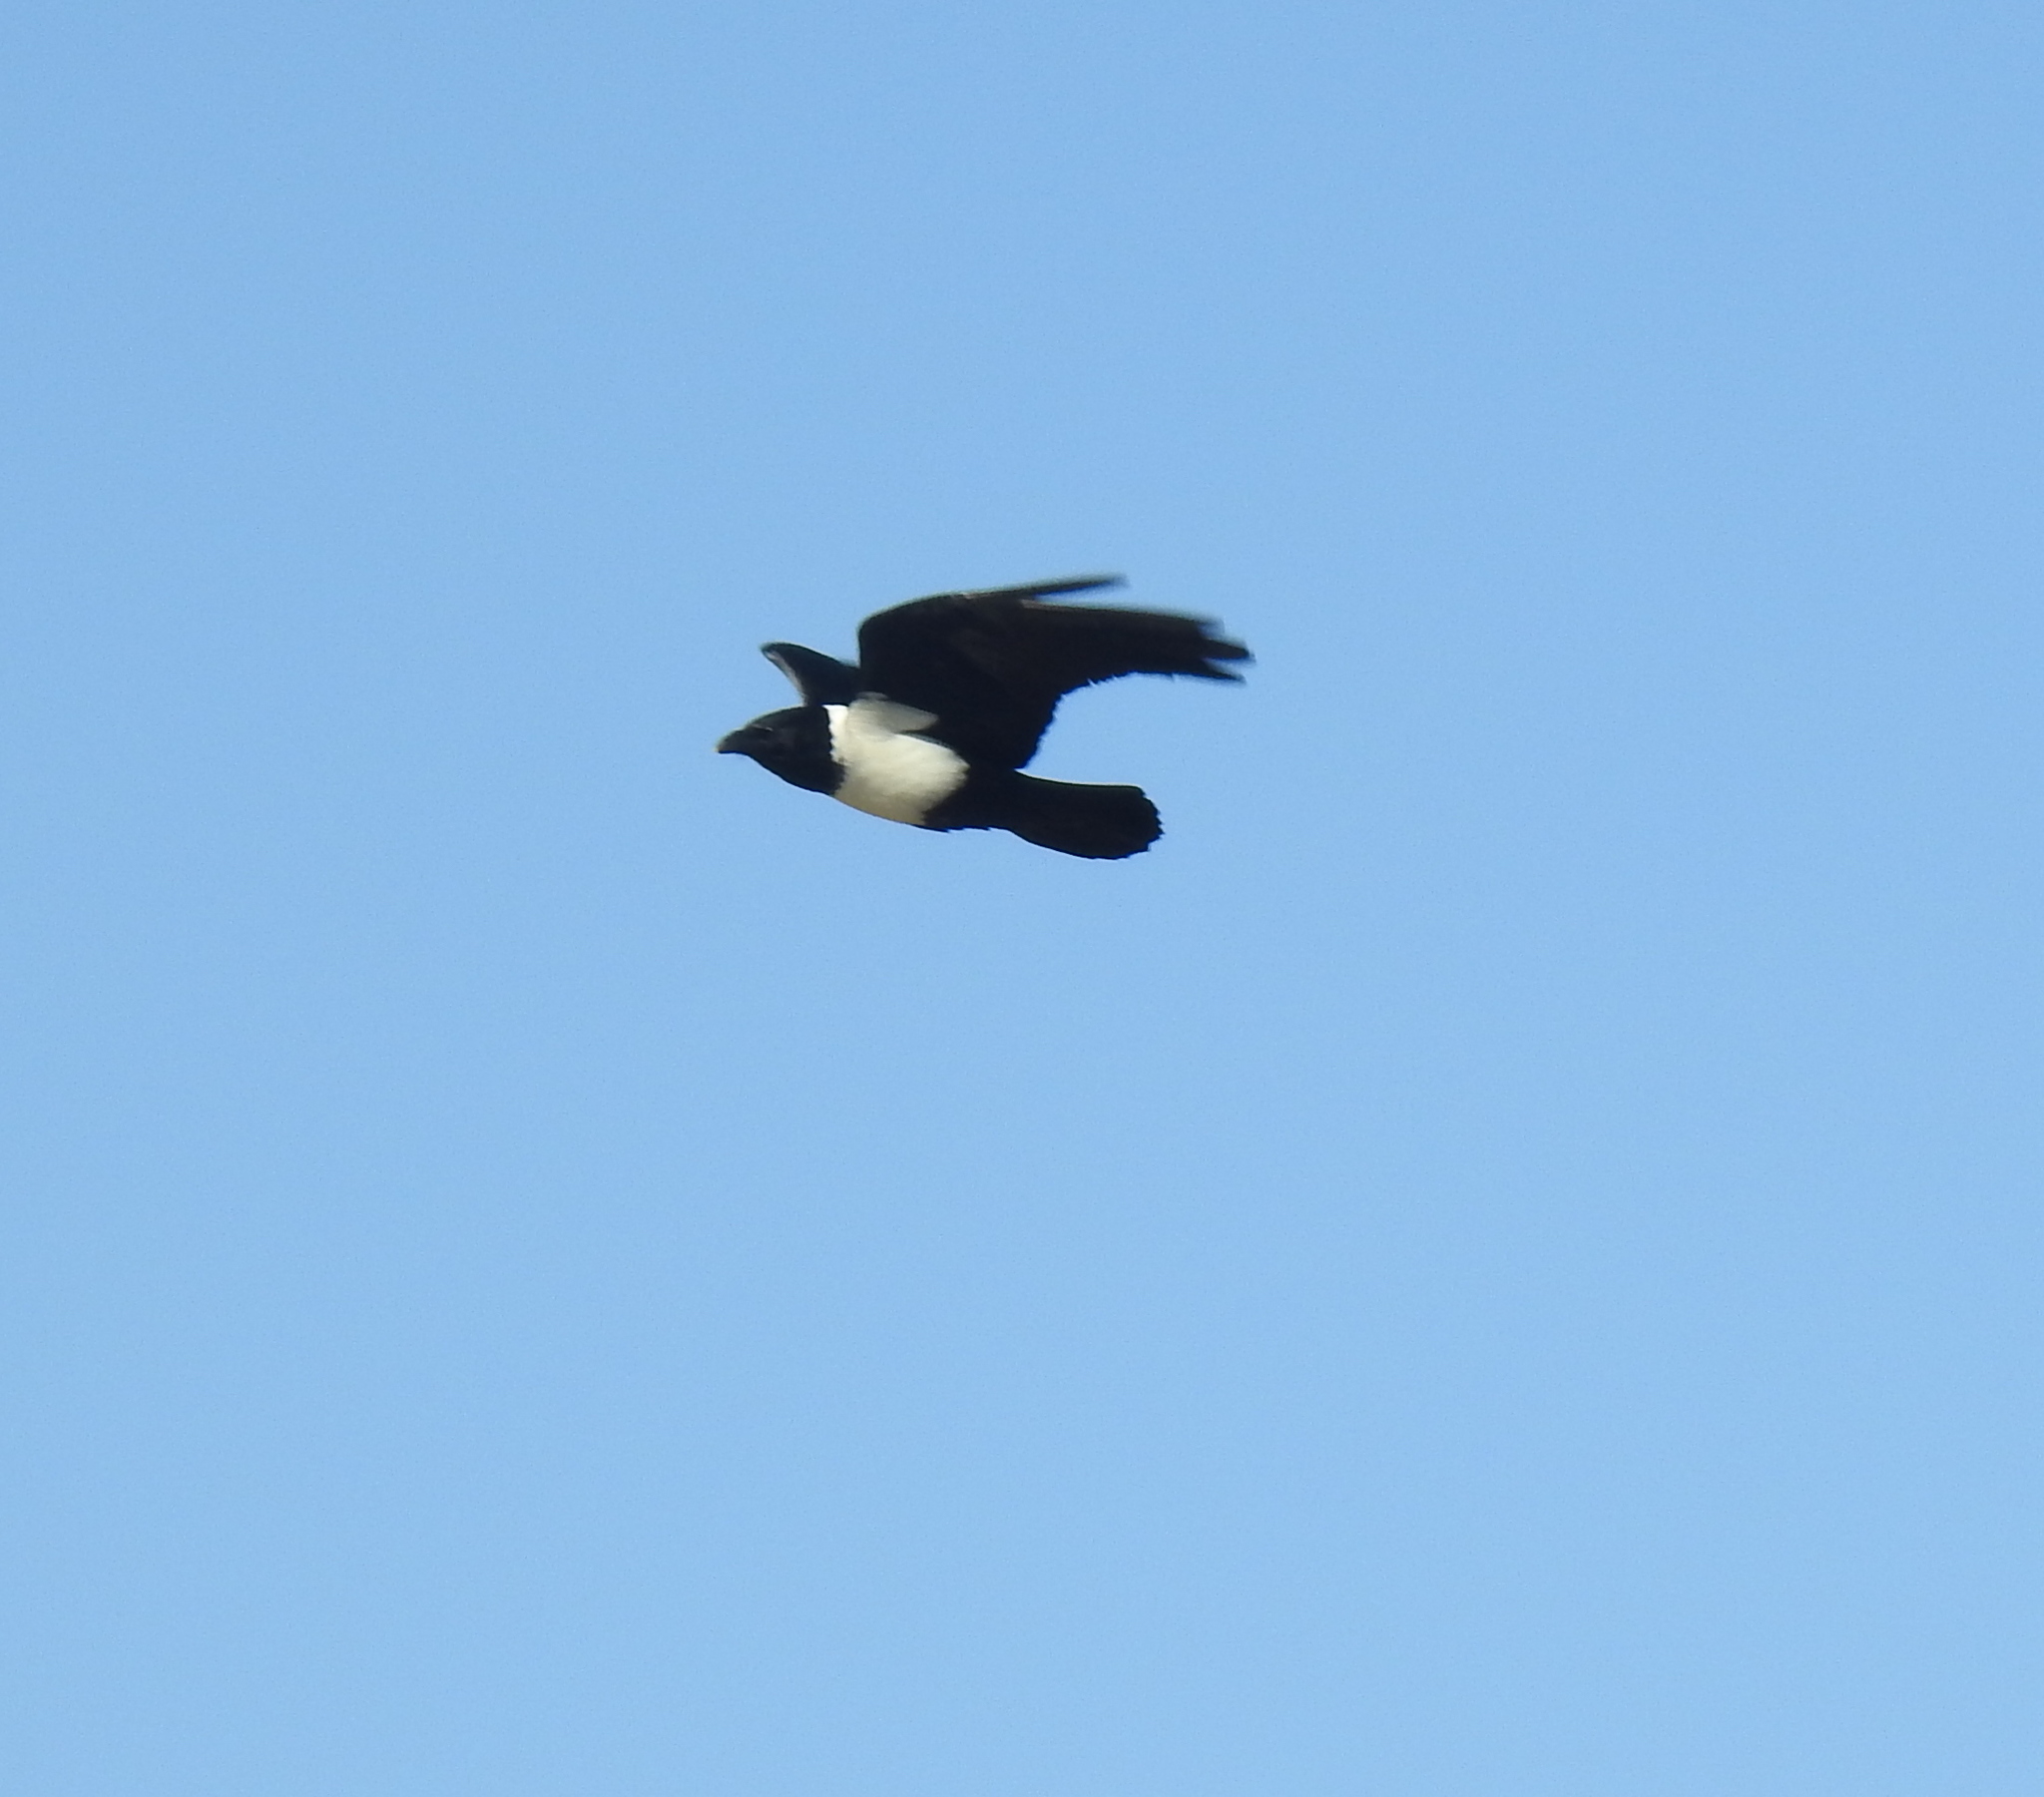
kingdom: Animalia
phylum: Chordata
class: Aves
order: Passeriformes
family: Corvidae
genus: Corvus
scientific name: Corvus albus
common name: Pied crow
